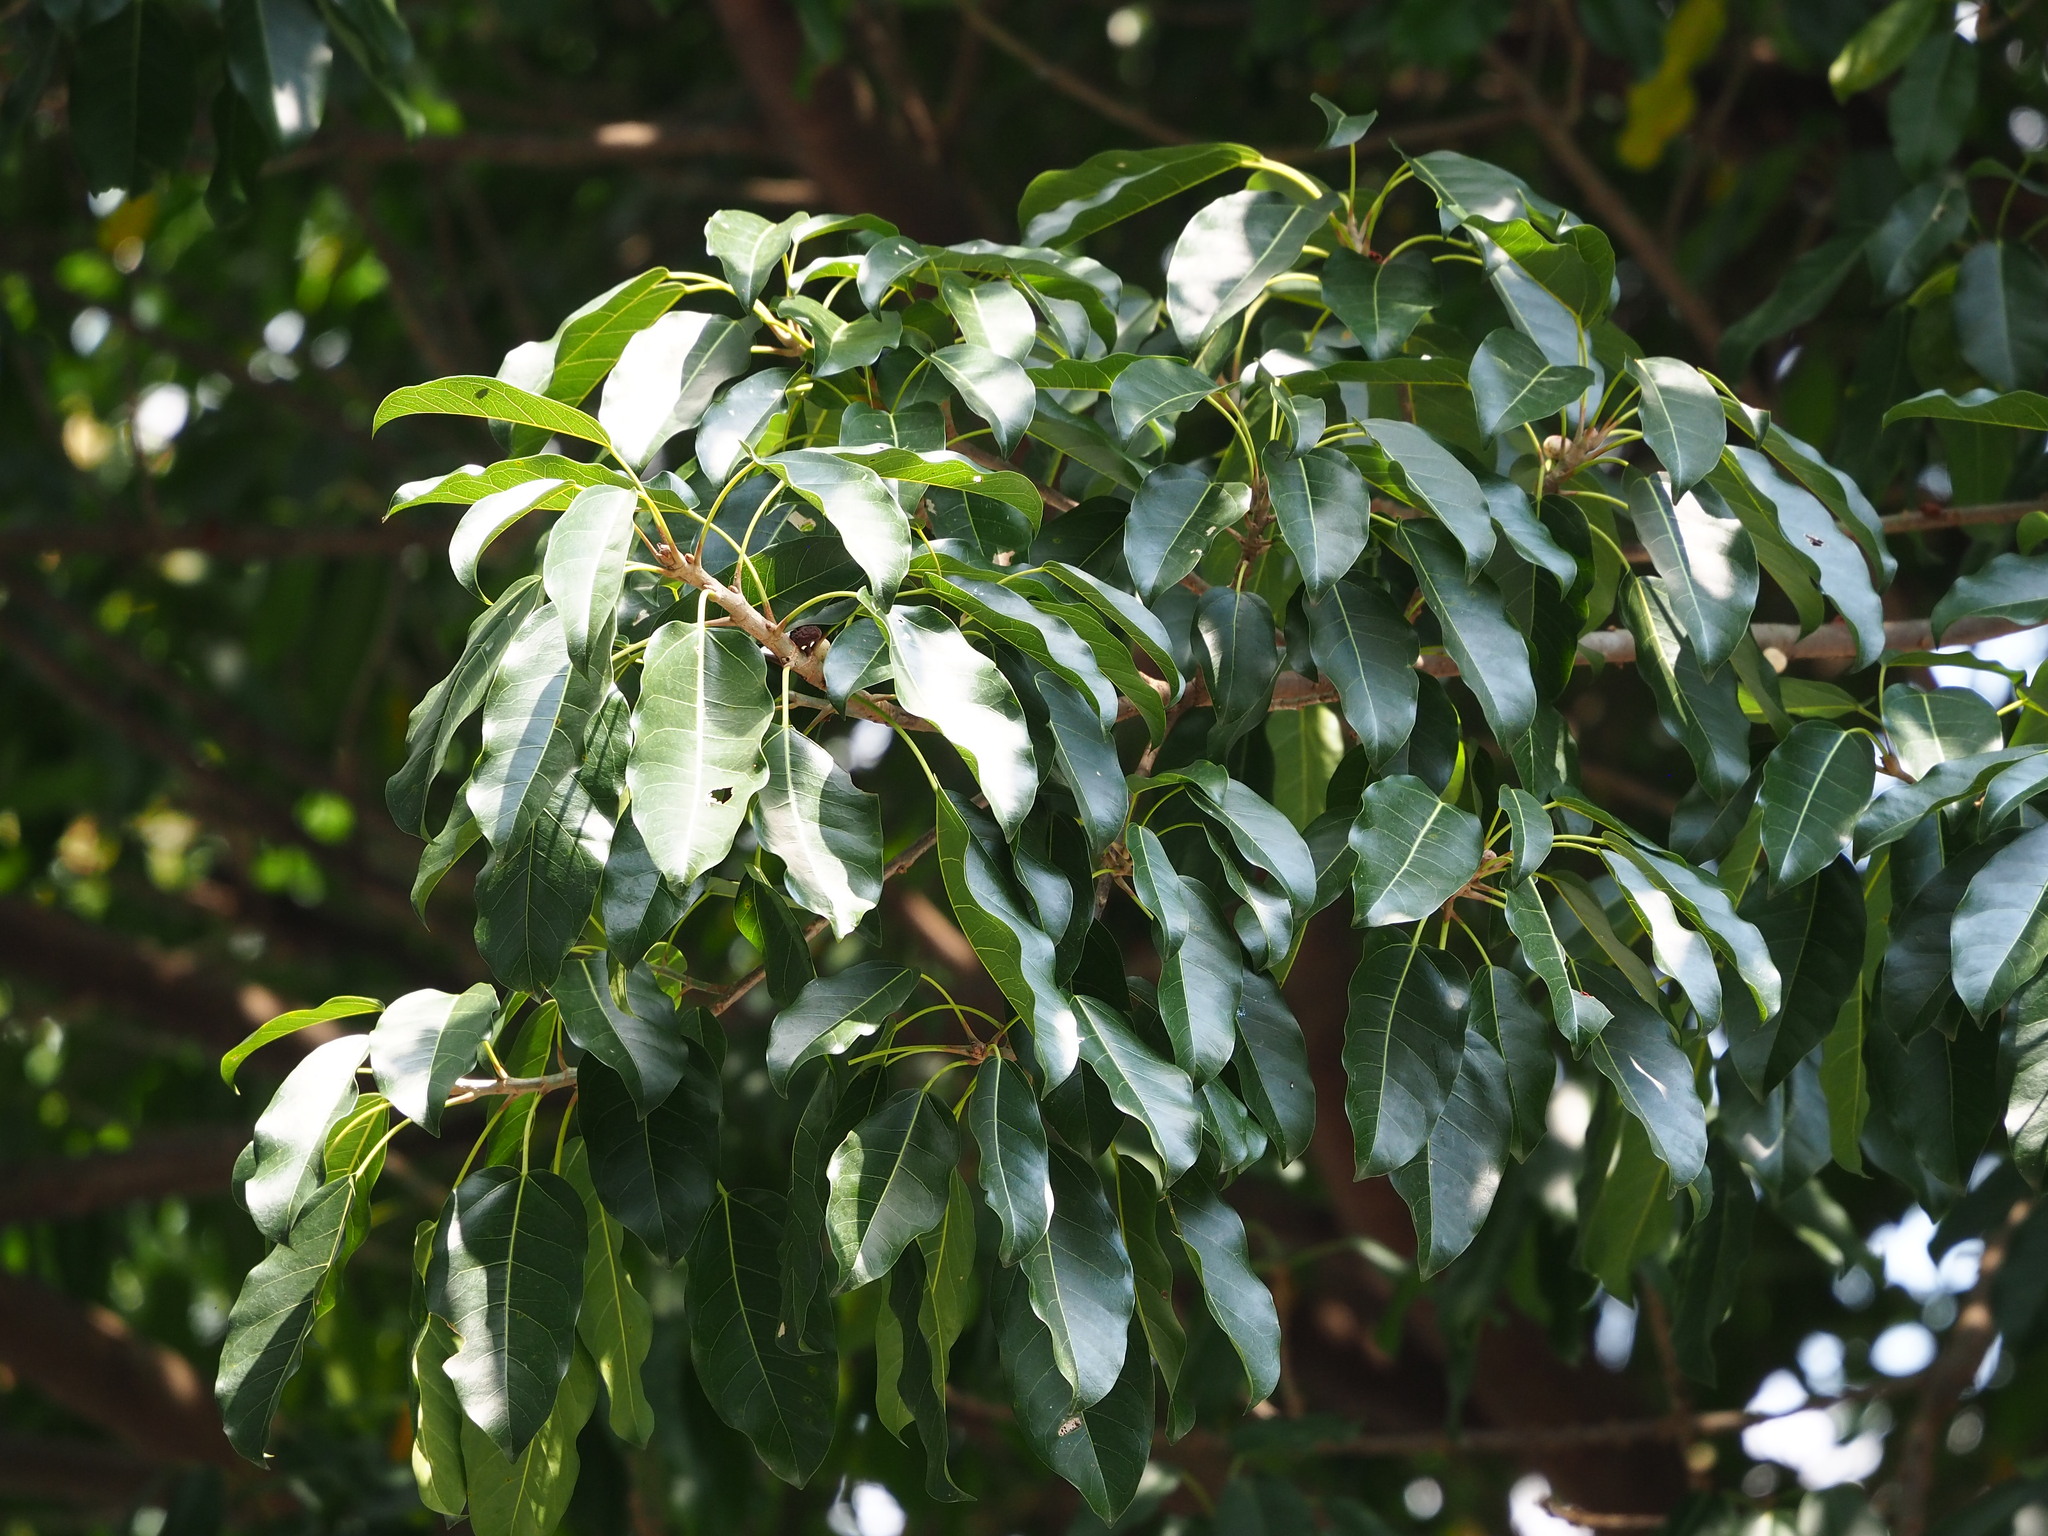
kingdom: Plantae
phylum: Tracheophyta
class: Magnoliopsida
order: Rosales
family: Moraceae
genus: Ficus
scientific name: Ficus subpisocarpa
